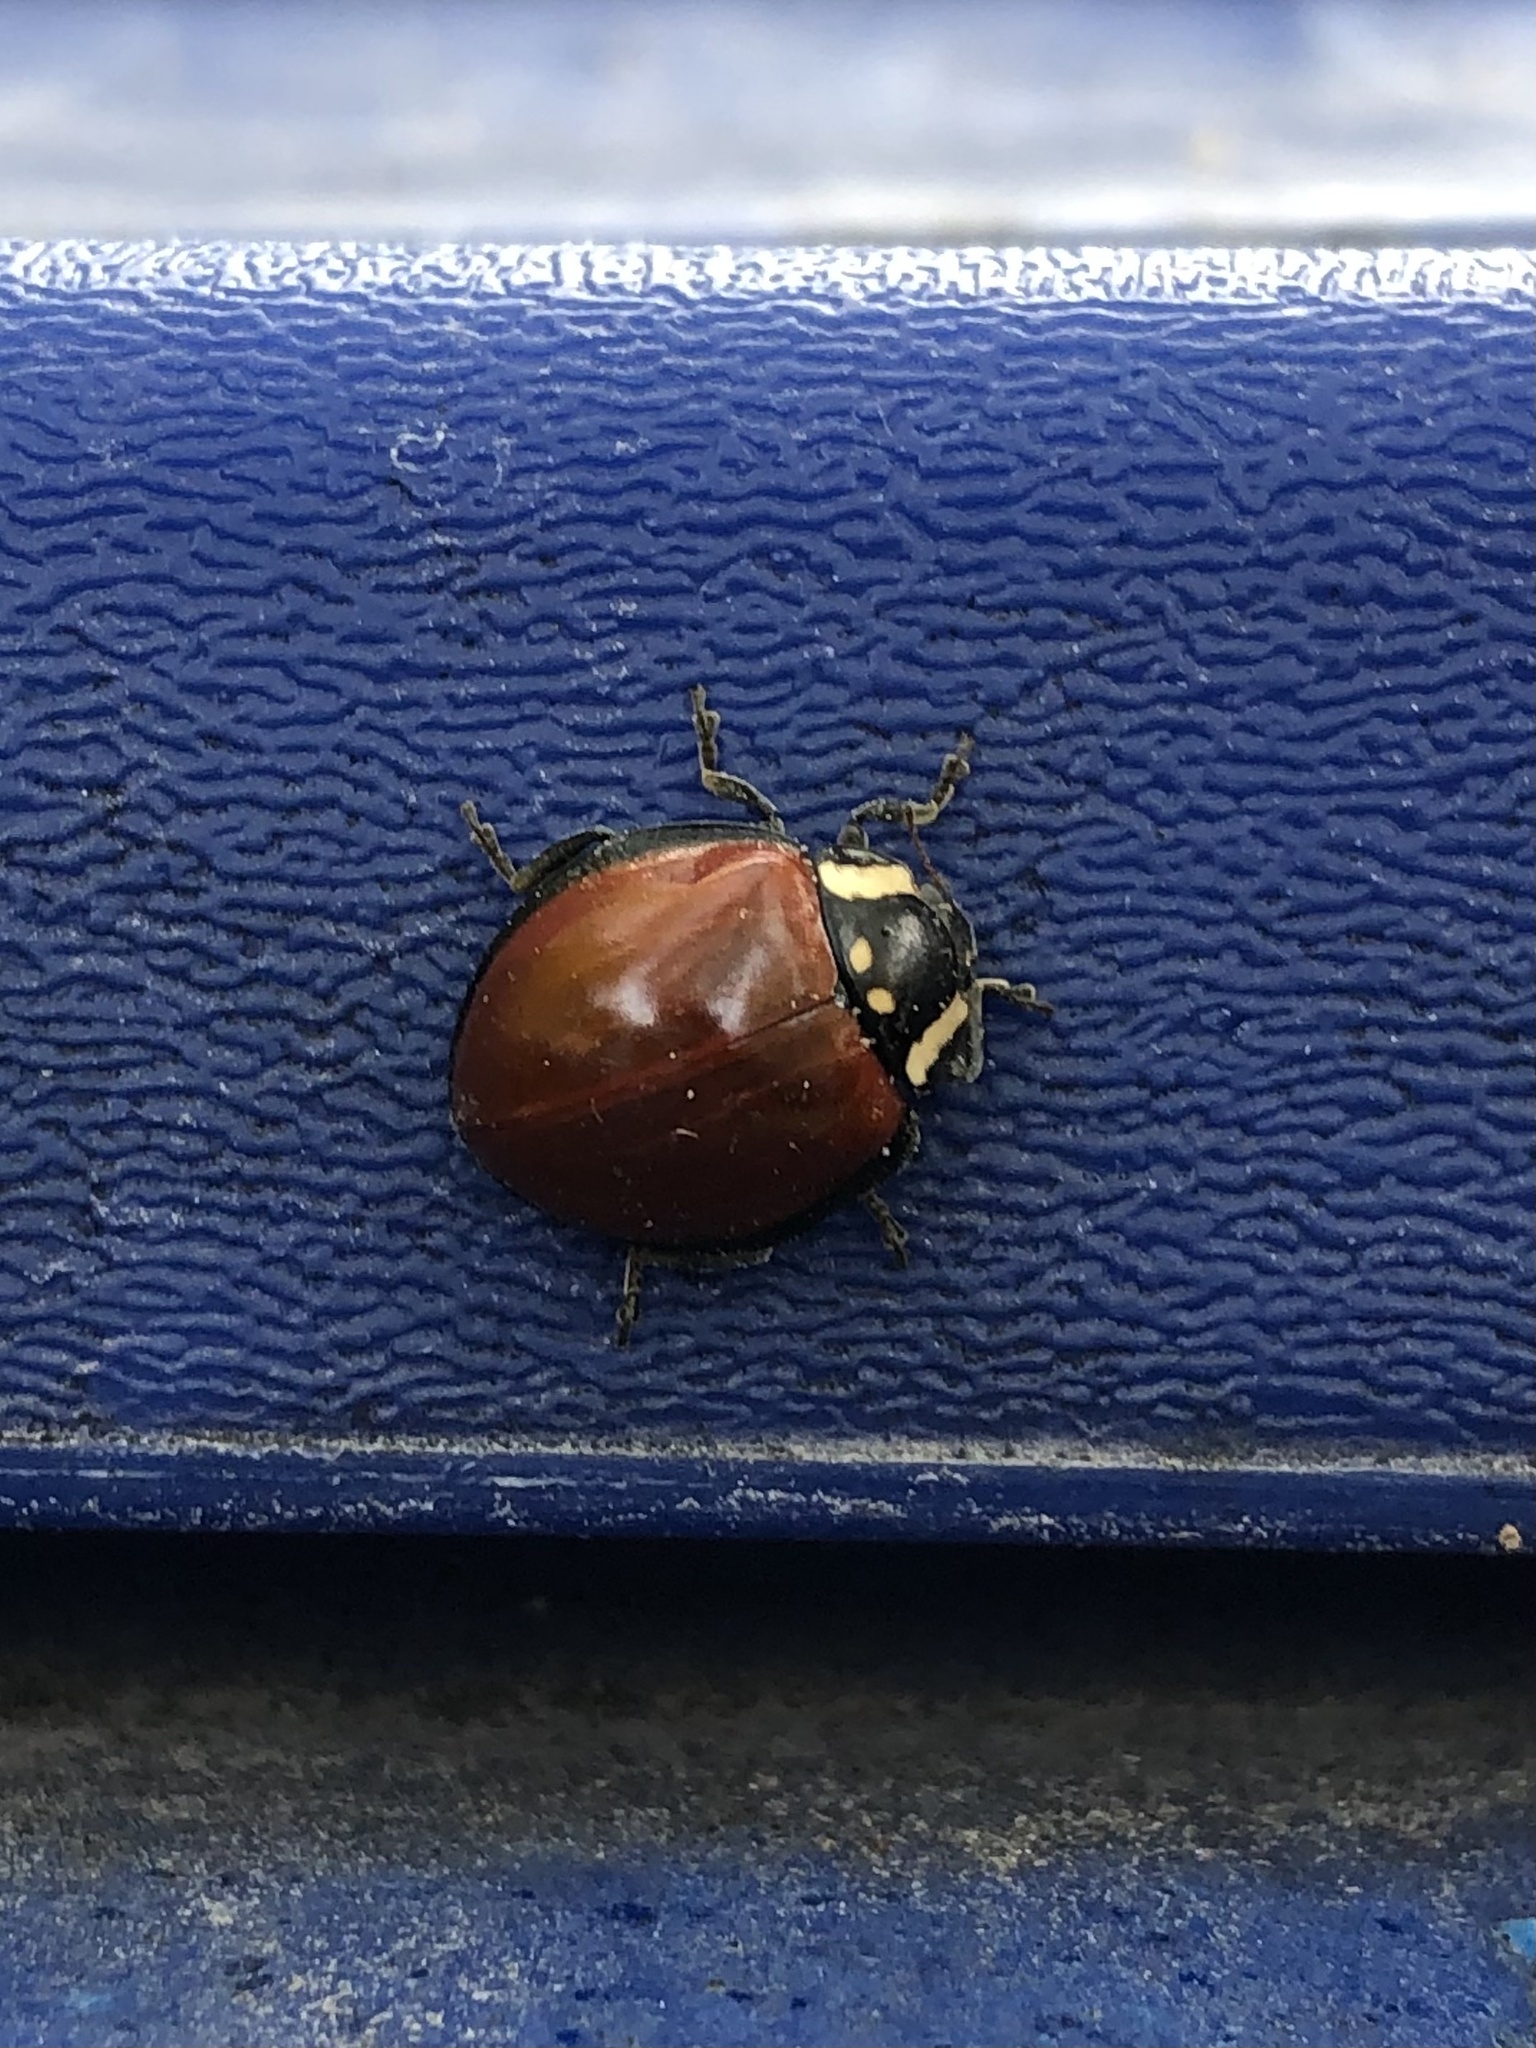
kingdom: Animalia
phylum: Arthropoda
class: Insecta
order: Coleoptera
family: Coccinellidae
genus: Anatis
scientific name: Anatis lecontei
